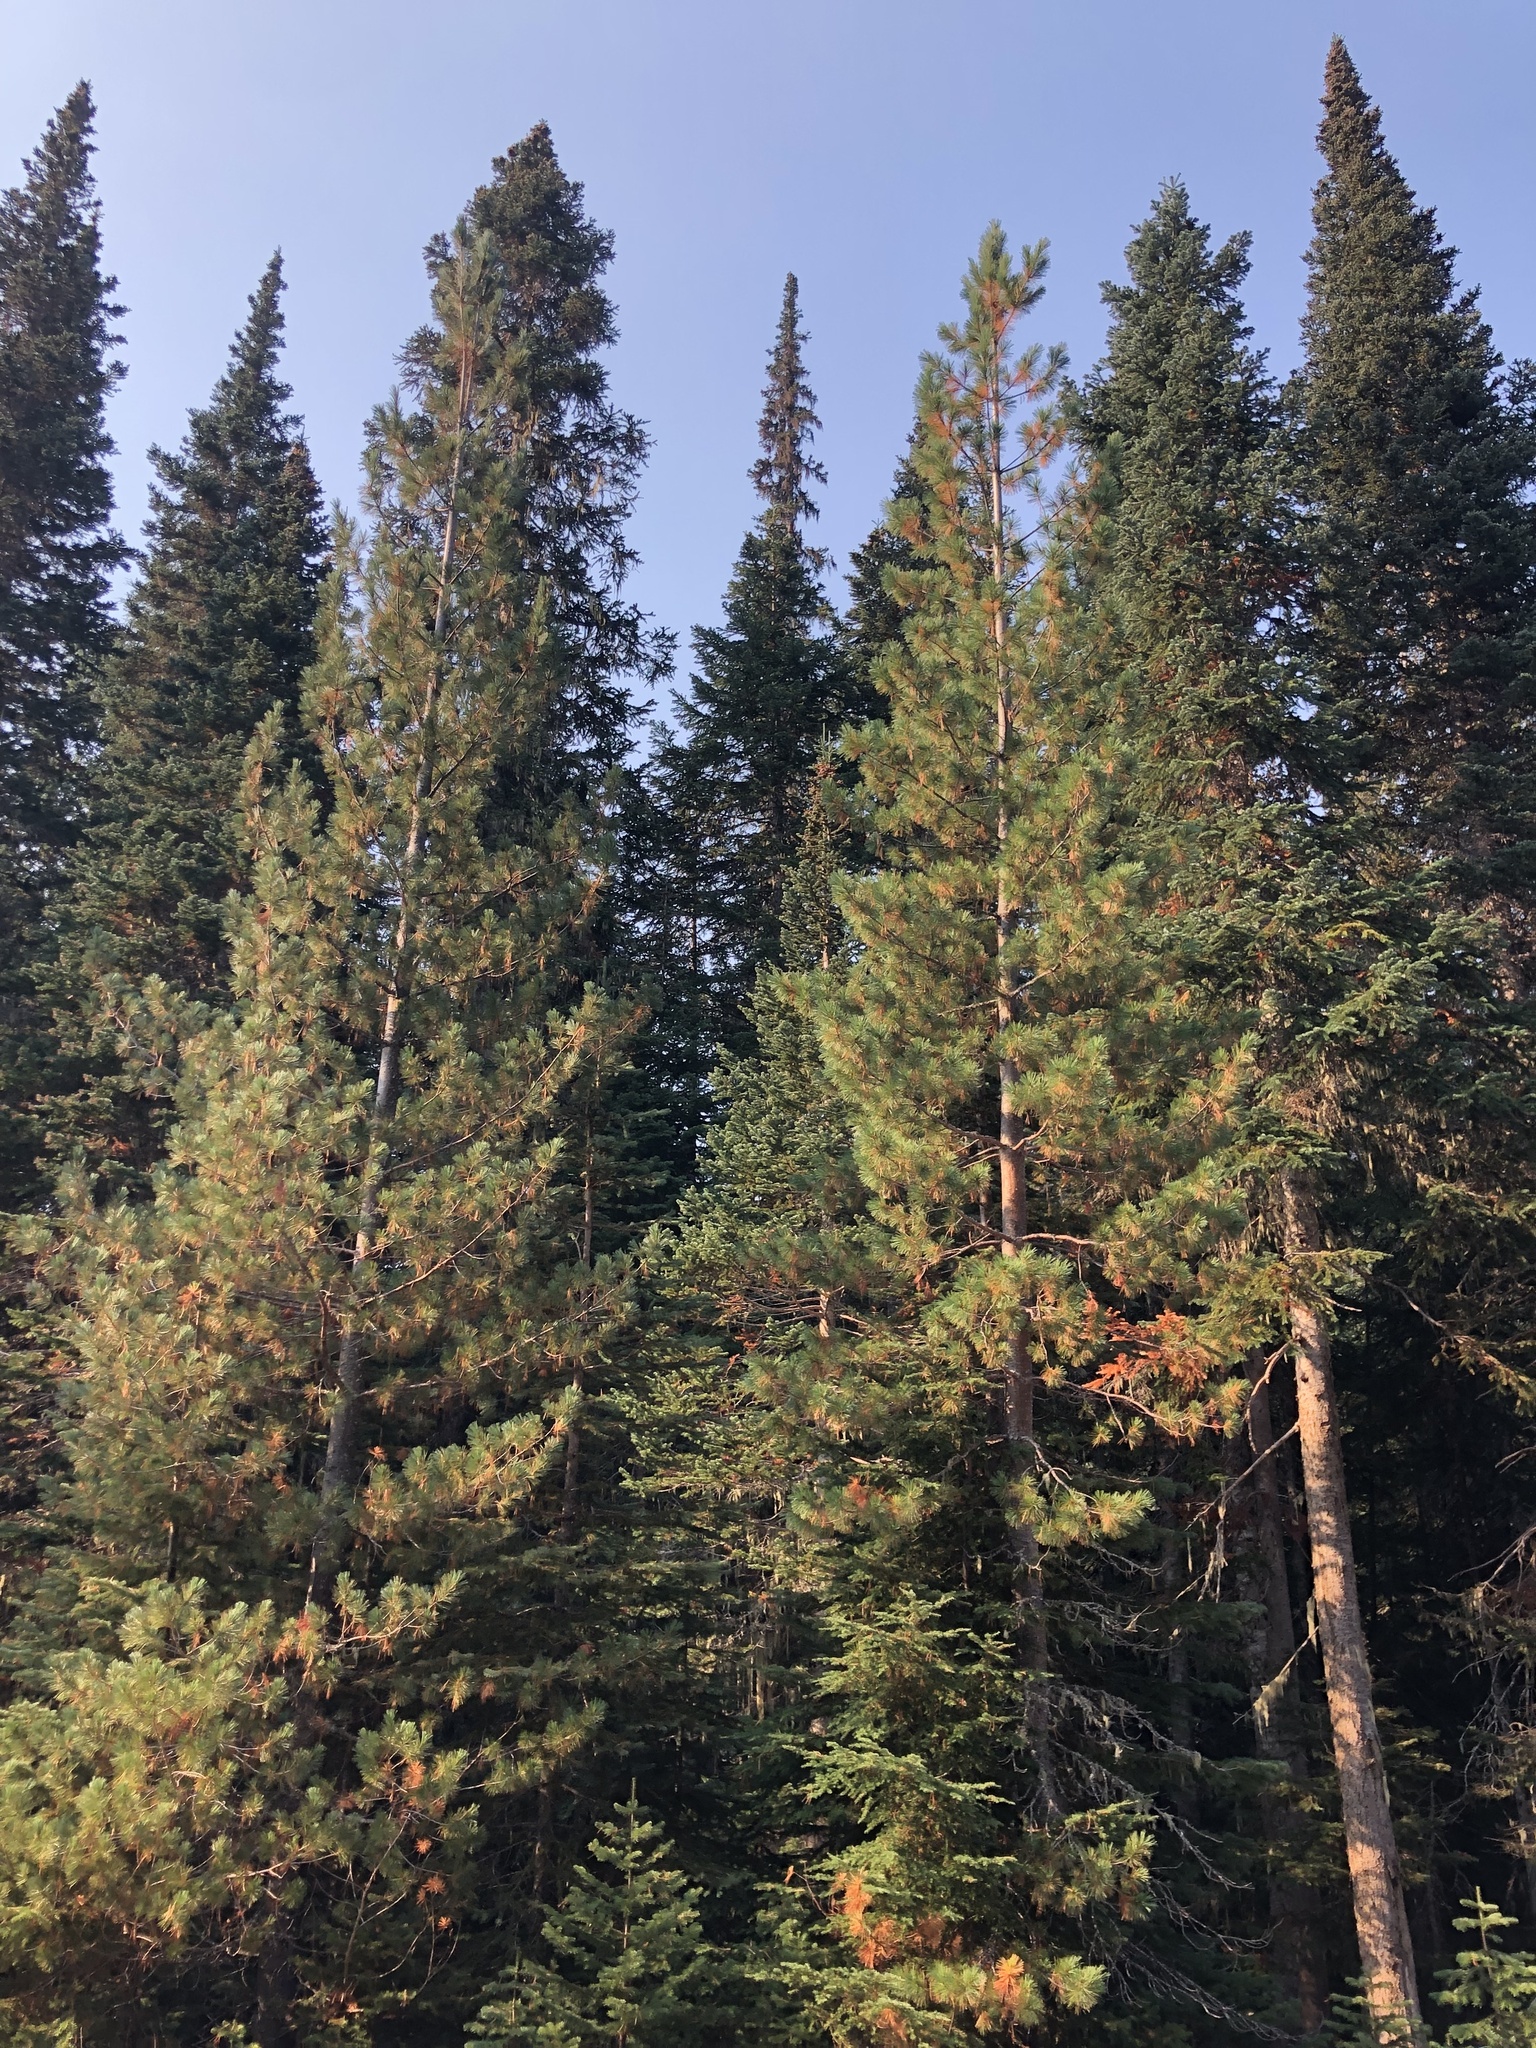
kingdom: Plantae
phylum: Tracheophyta
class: Pinopsida
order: Pinales
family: Pinaceae
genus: Pinus
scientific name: Pinus monticola
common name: Western white pine
